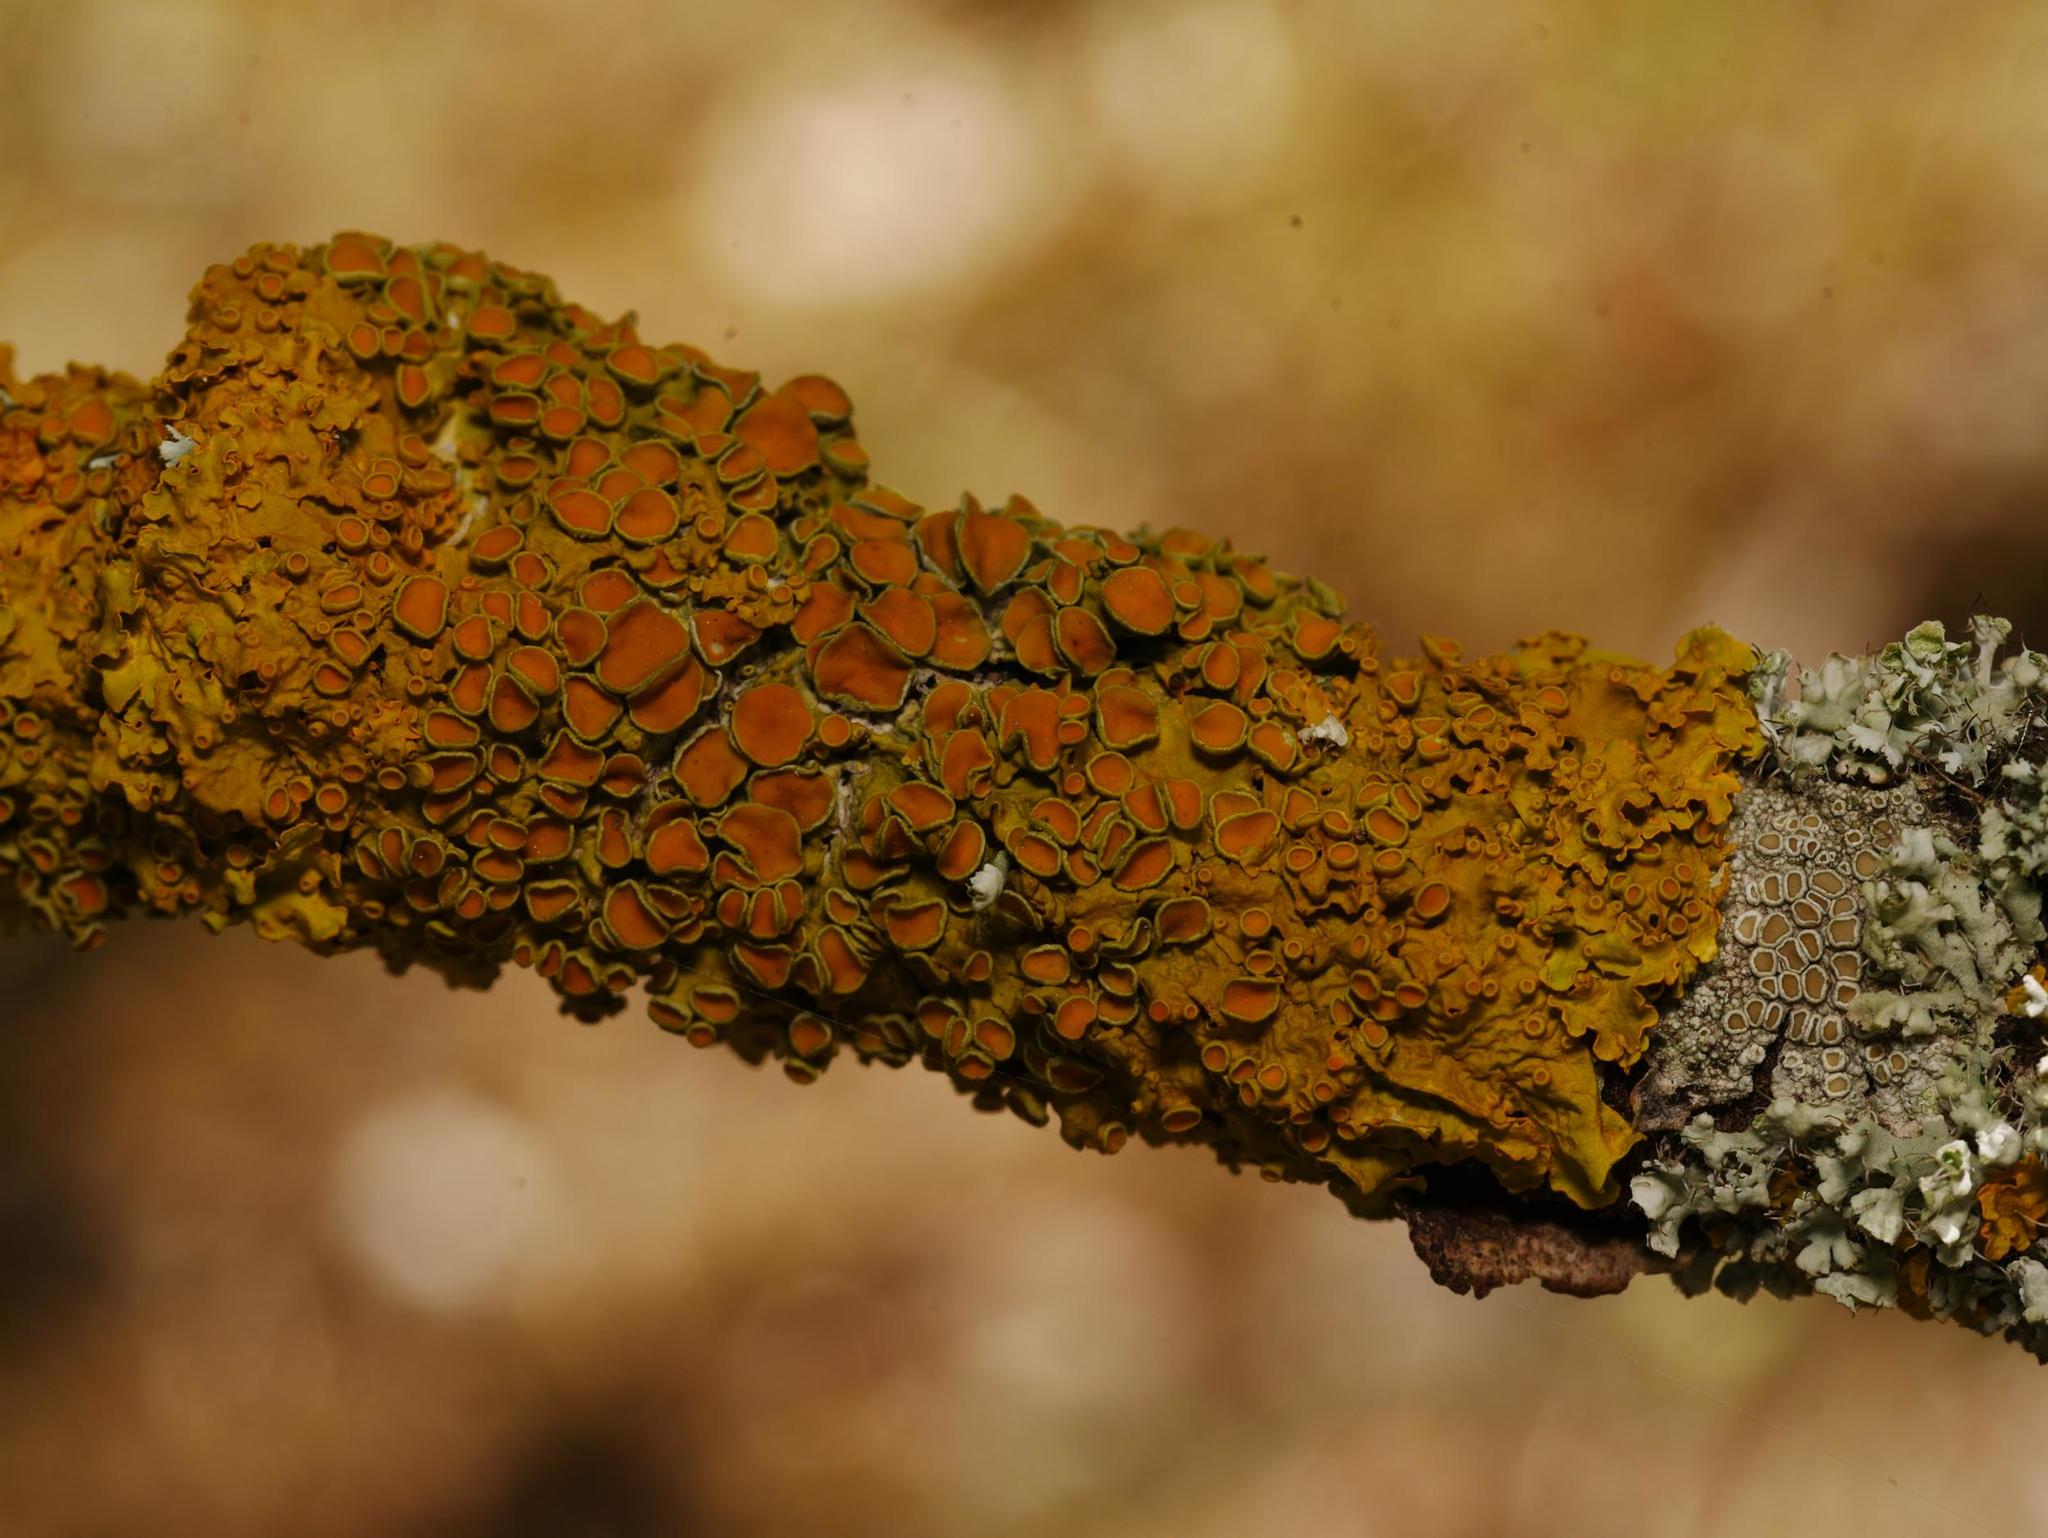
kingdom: Fungi
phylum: Ascomycota
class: Lecanoromycetes
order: Teloschistales
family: Teloschistaceae
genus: Xanthoria
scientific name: Xanthoria parietina
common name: Common orange lichen
